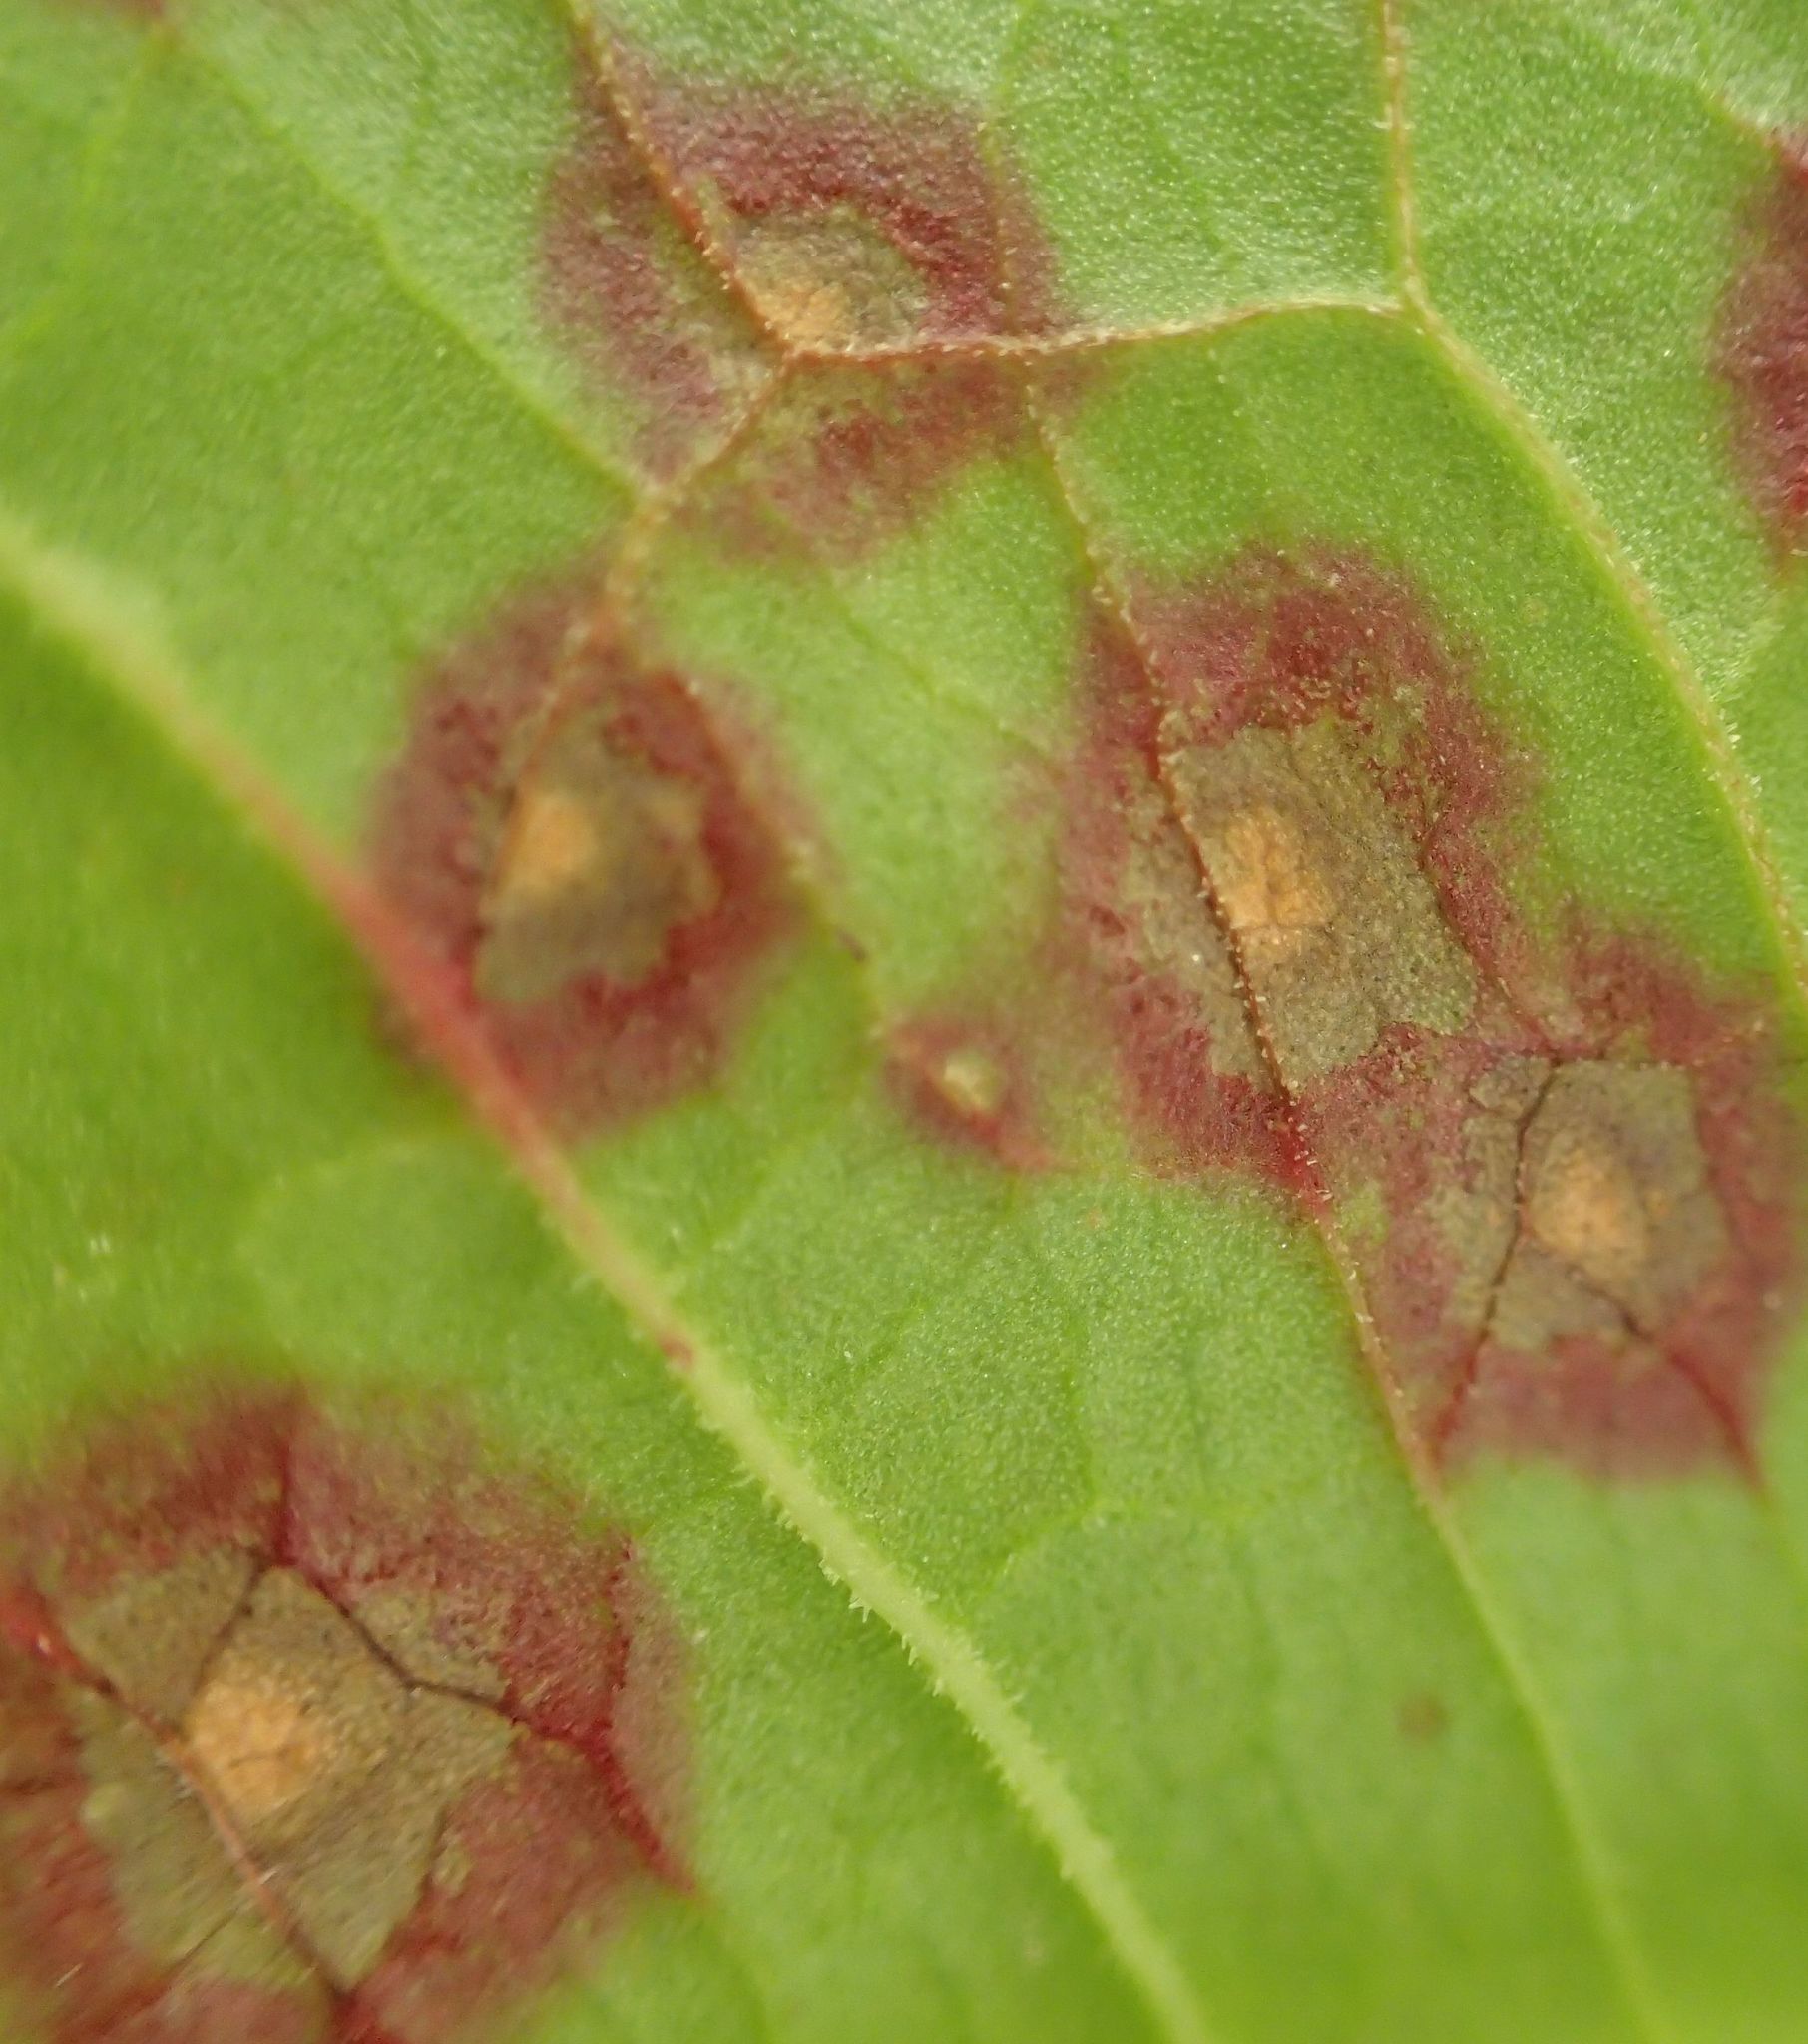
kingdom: Fungi
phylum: Ascomycota
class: Dothideomycetes
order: Mycosphaerellales
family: Mycosphaerellaceae
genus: Ramularia
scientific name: Ramularia rubella
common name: Red dock spot
